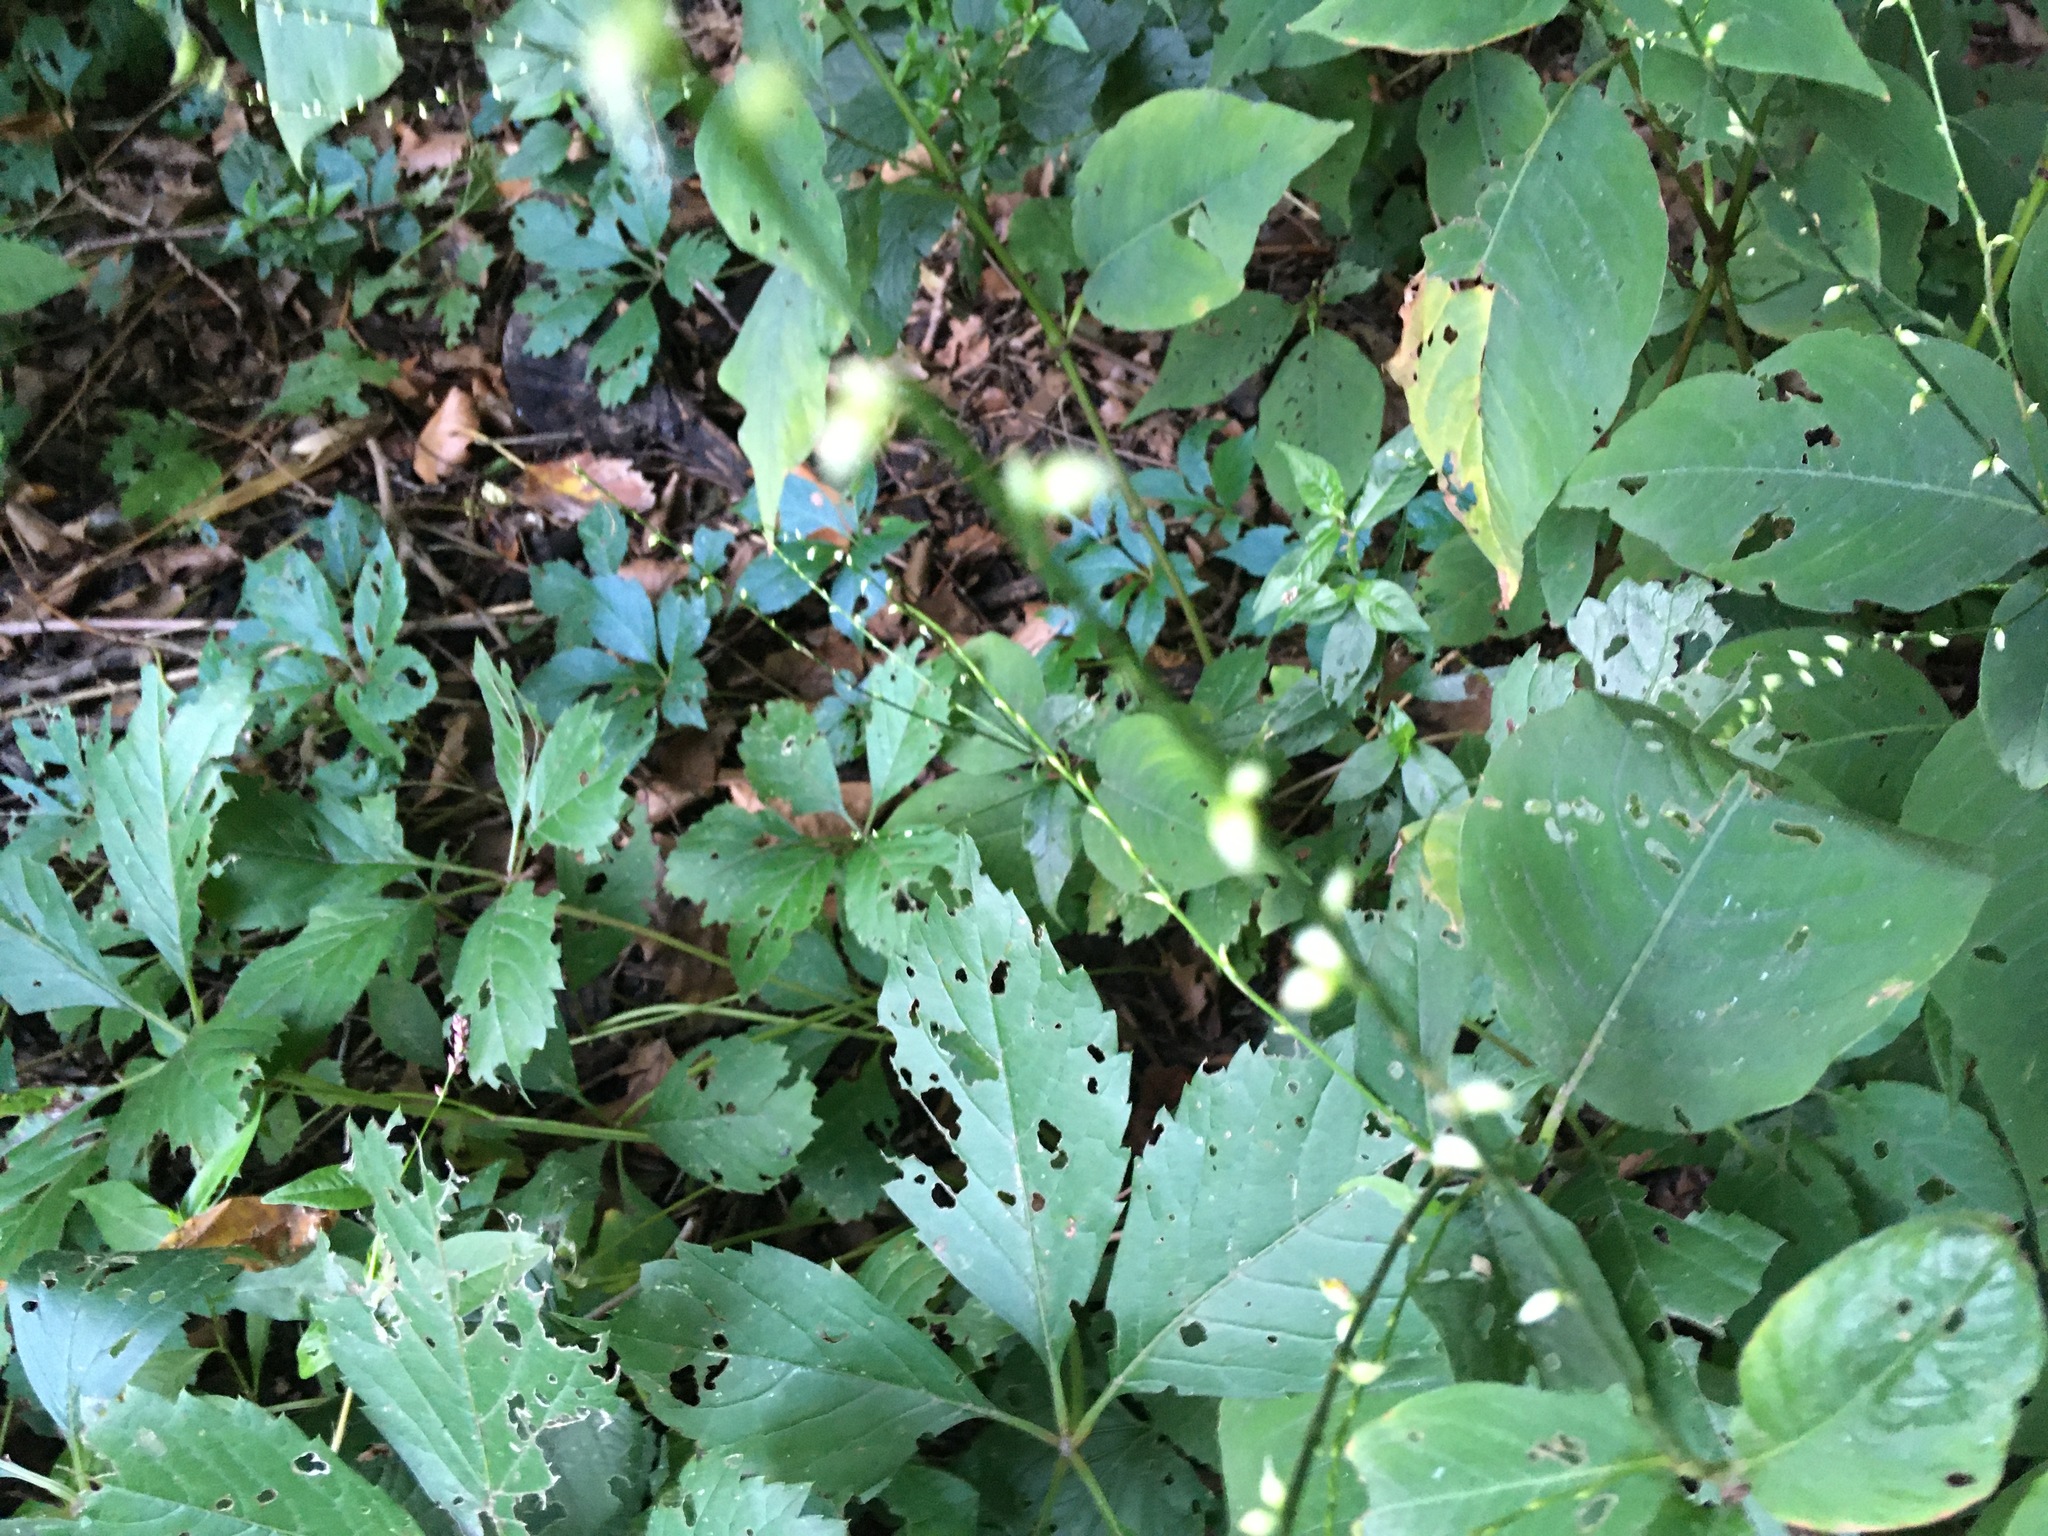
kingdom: Plantae
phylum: Tracheophyta
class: Magnoliopsida
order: Caryophyllales
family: Polygonaceae
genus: Persicaria
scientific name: Persicaria virginiana
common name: Jumpseed
